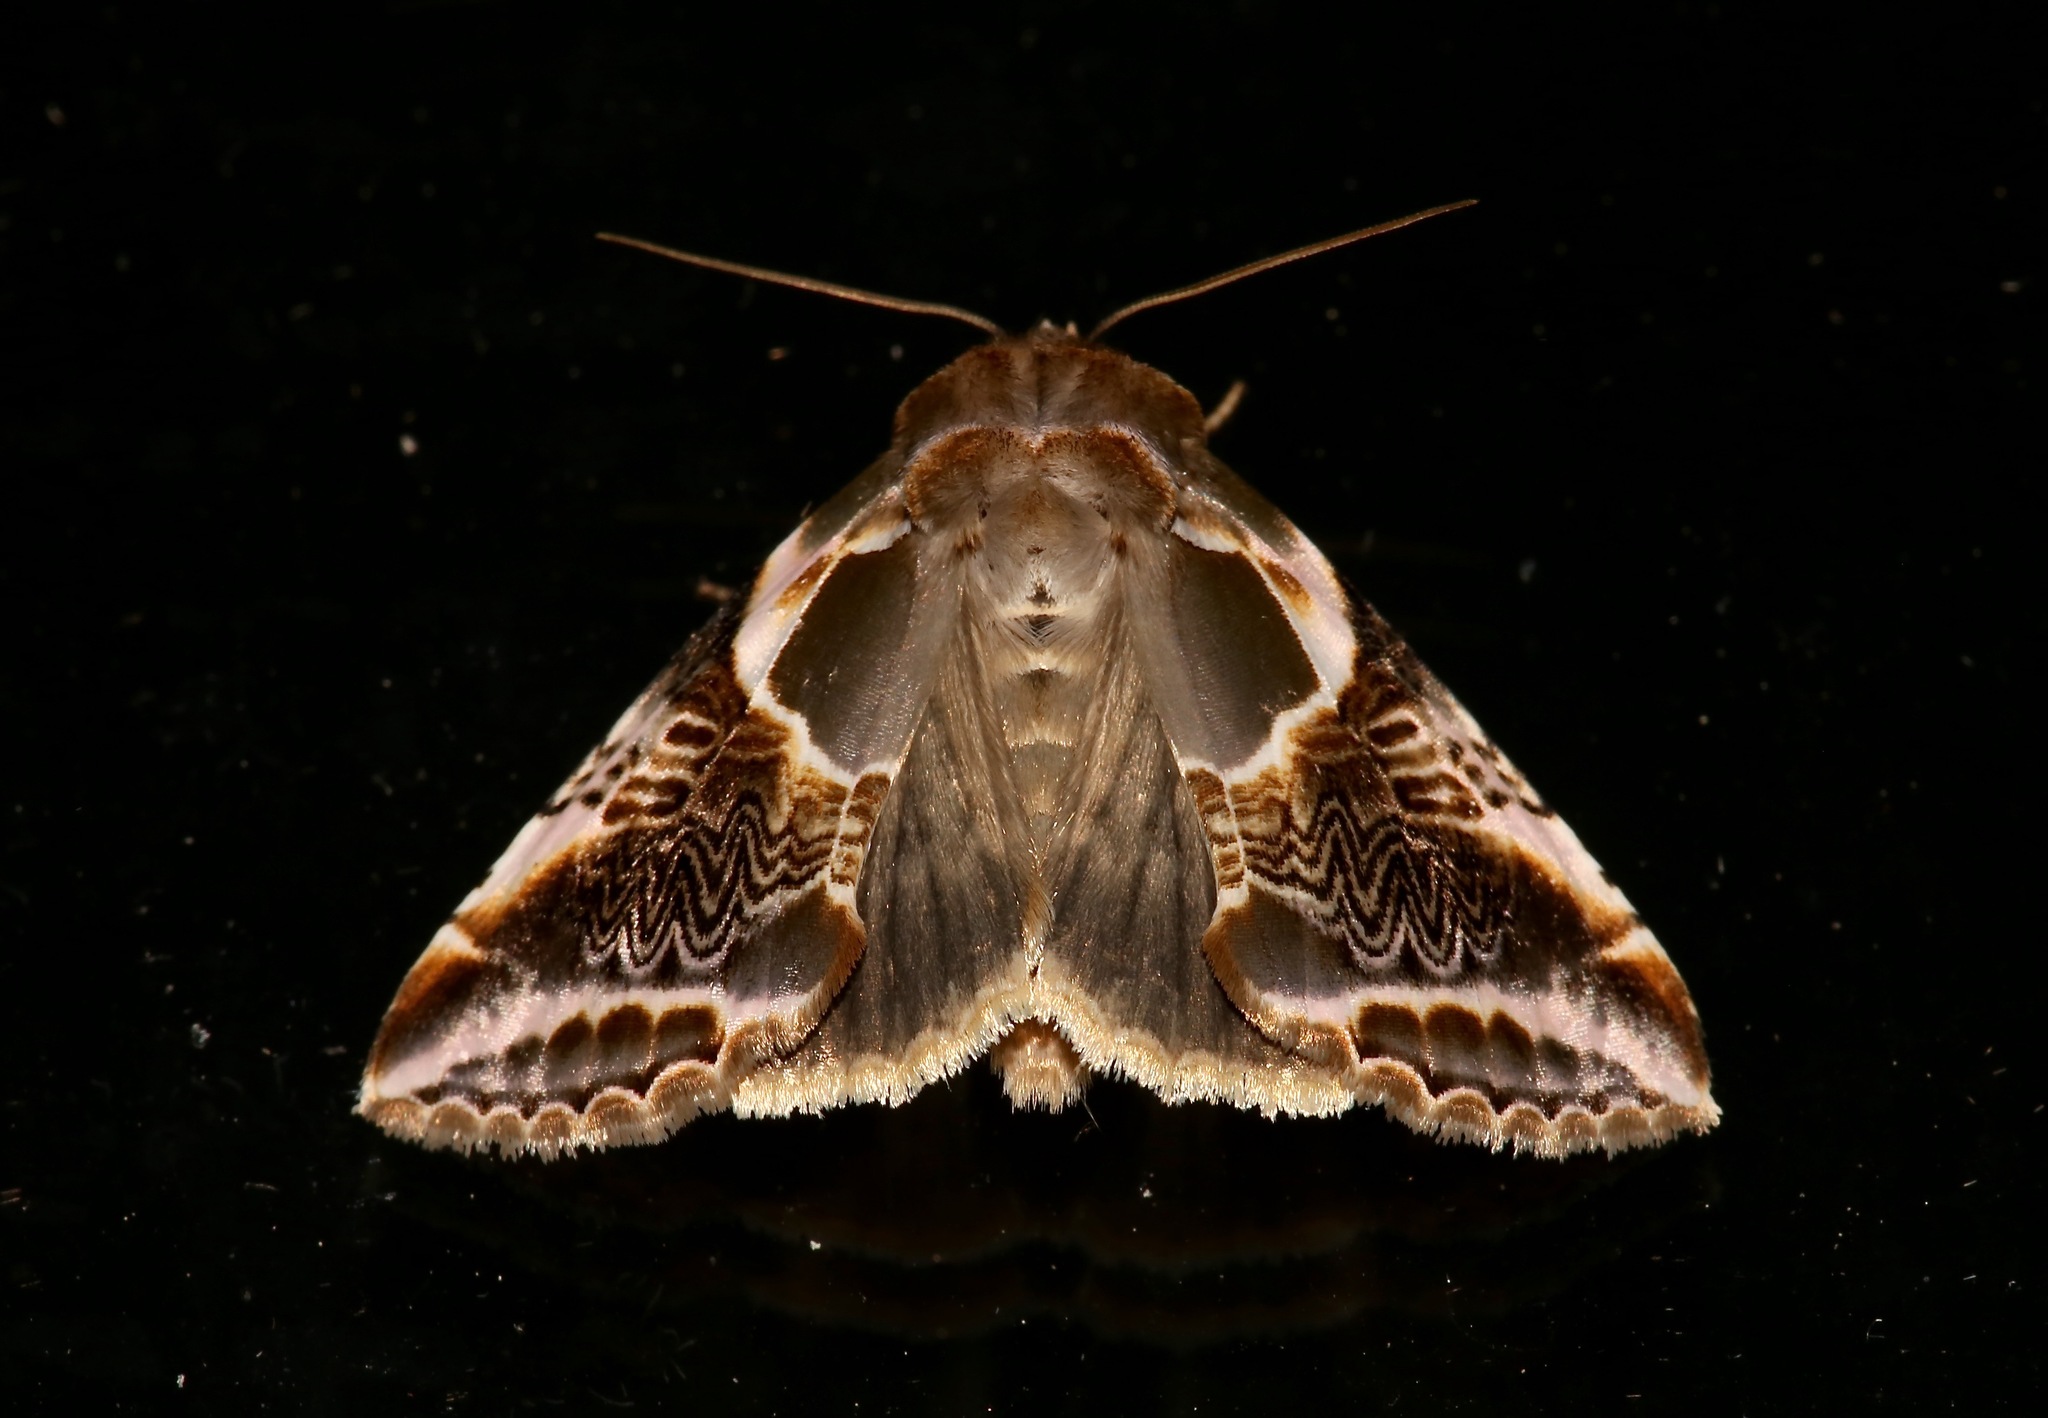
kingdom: Animalia
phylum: Arthropoda
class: Insecta
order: Lepidoptera
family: Drepanidae
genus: Habrosyne
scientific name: Habrosyne scripta
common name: Lettered habrosyne moth
